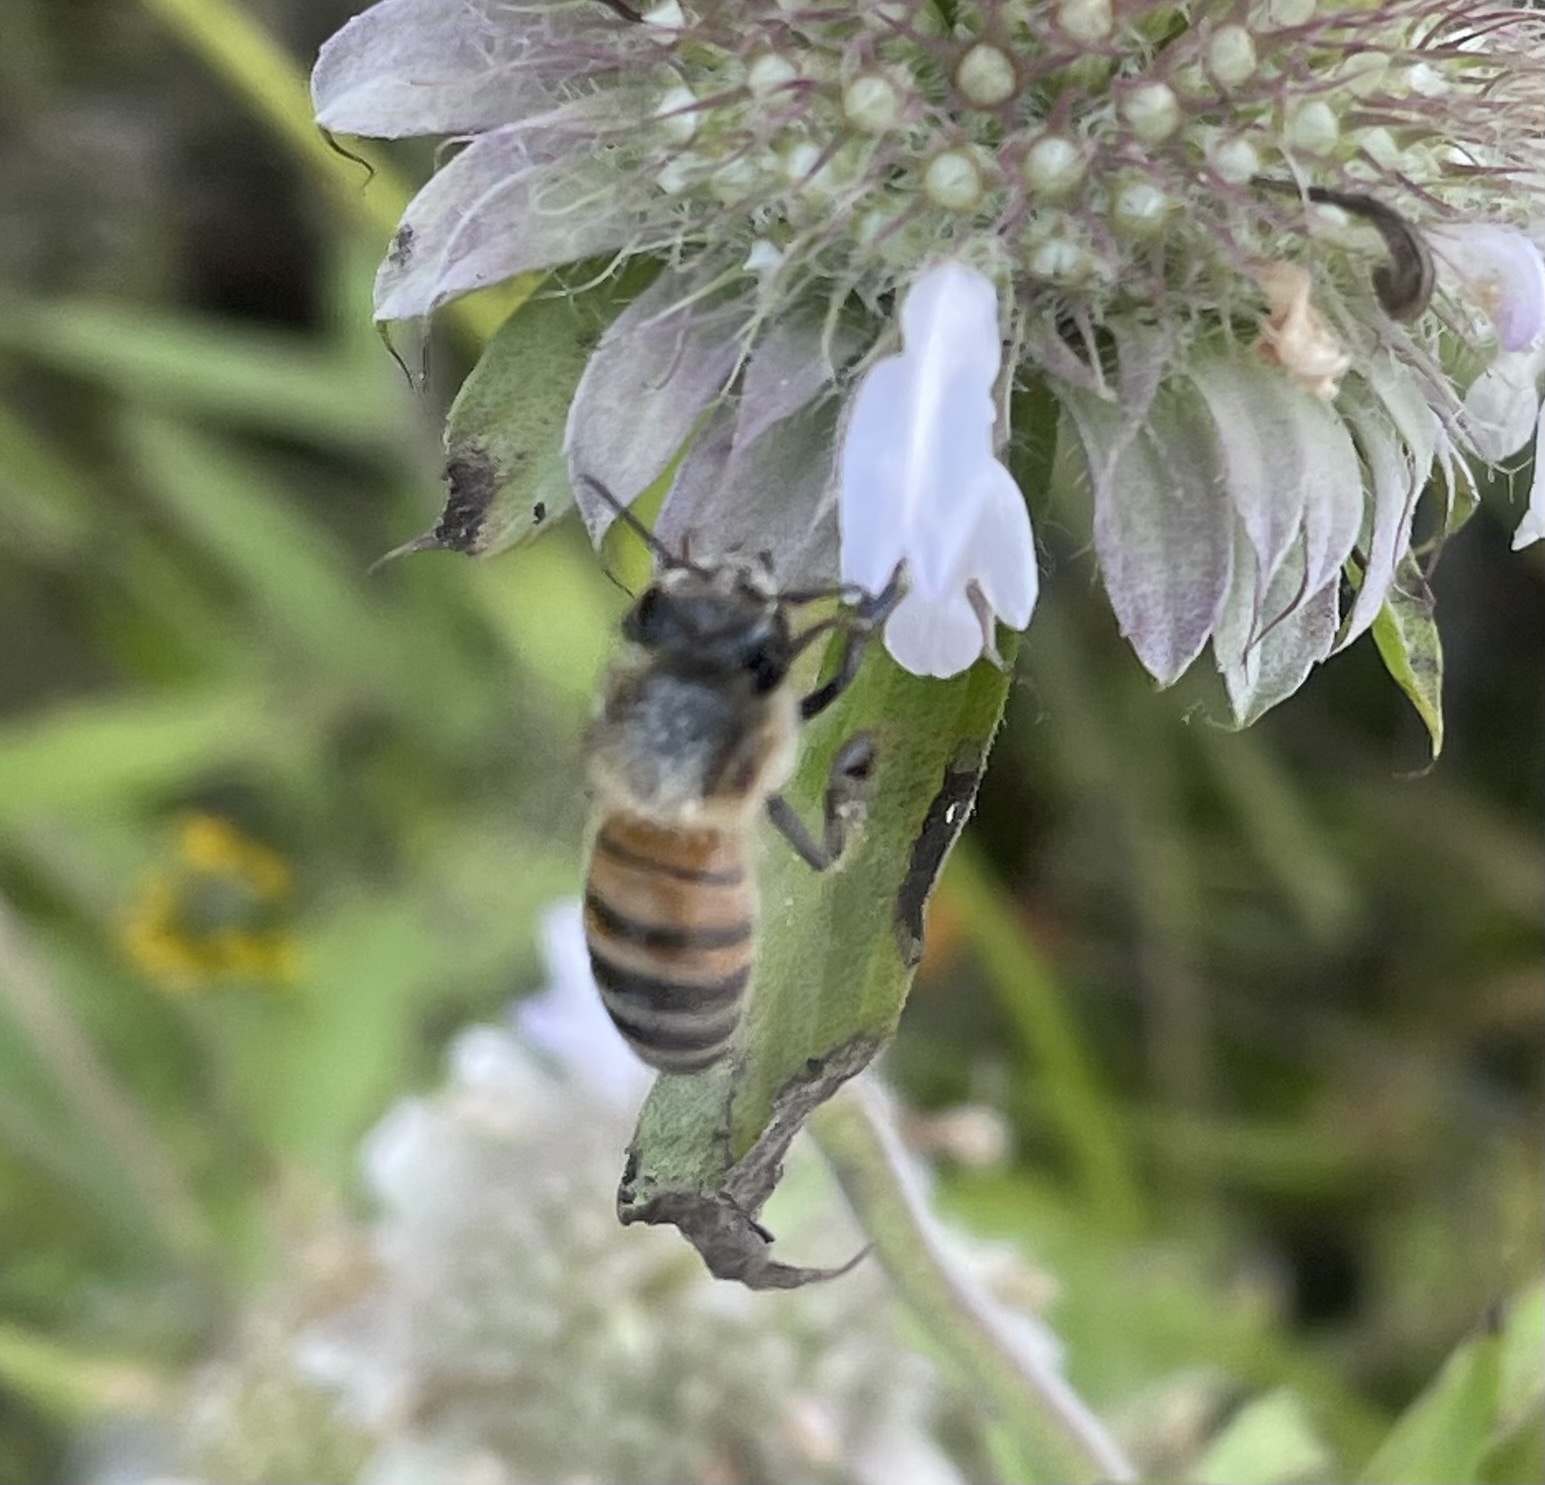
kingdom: Animalia
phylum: Arthropoda
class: Insecta
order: Hymenoptera
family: Apidae
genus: Apis
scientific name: Apis mellifera
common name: Honey bee
